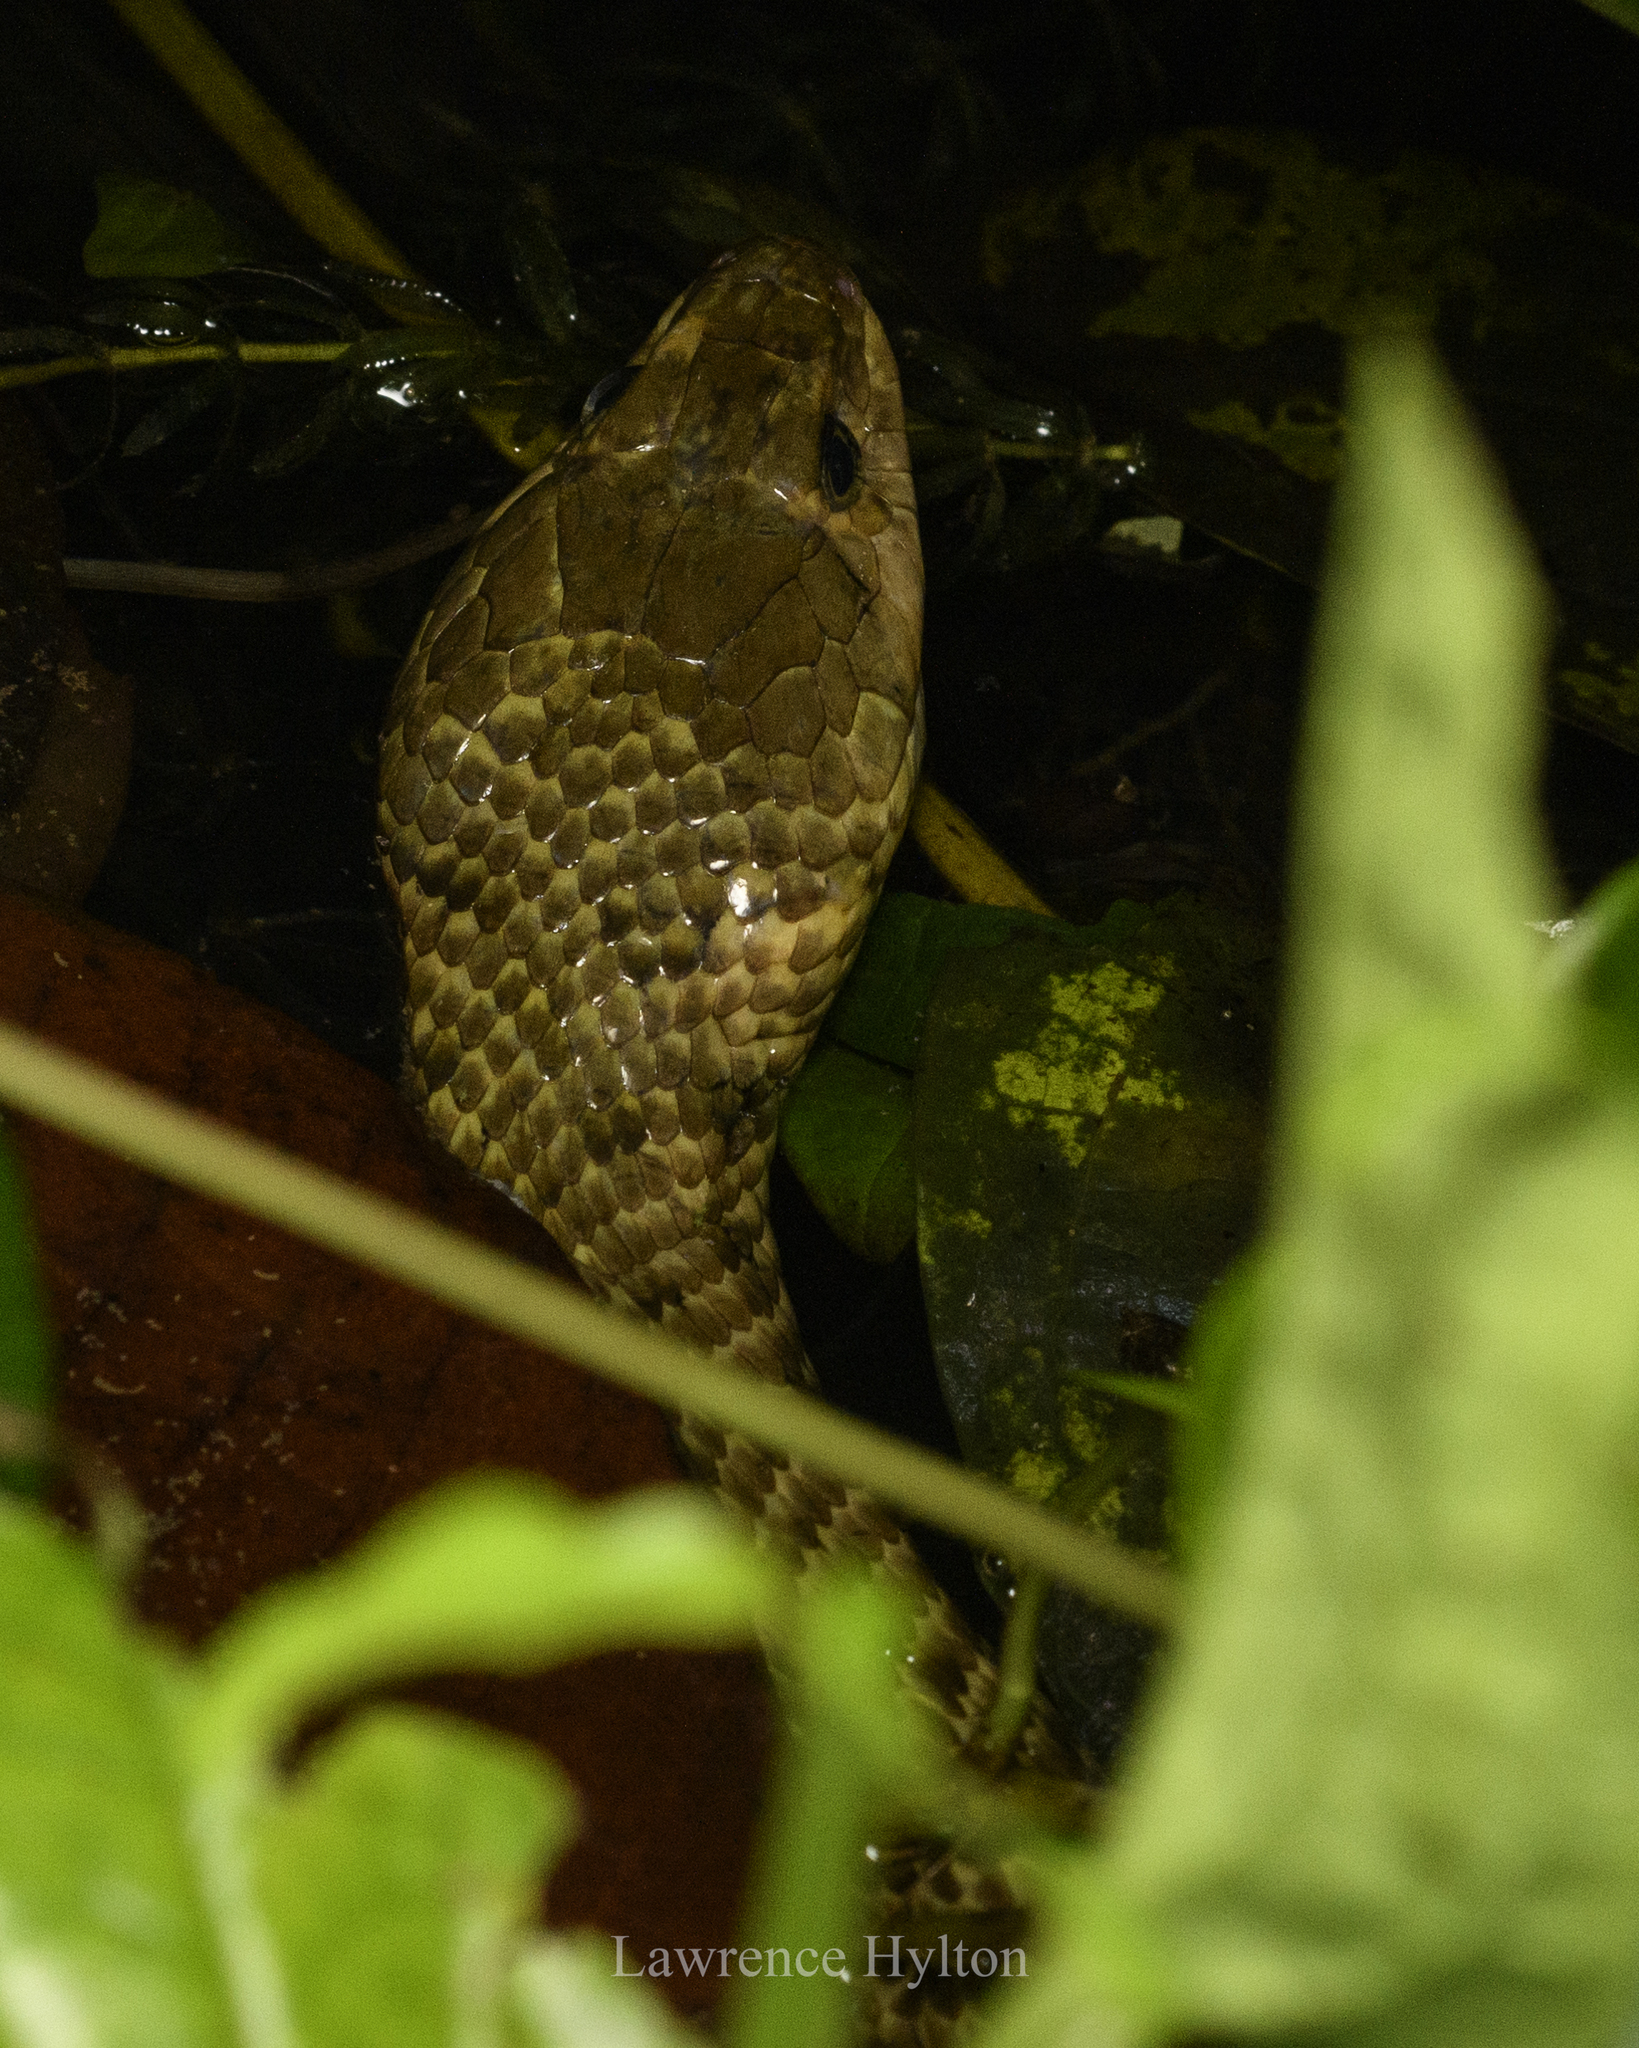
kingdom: Animalia
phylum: Chordata
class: Squamata
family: Colubridae
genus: Fowlea
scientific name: Fowlea flavipunctatus
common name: Yellow-spotted keelback
